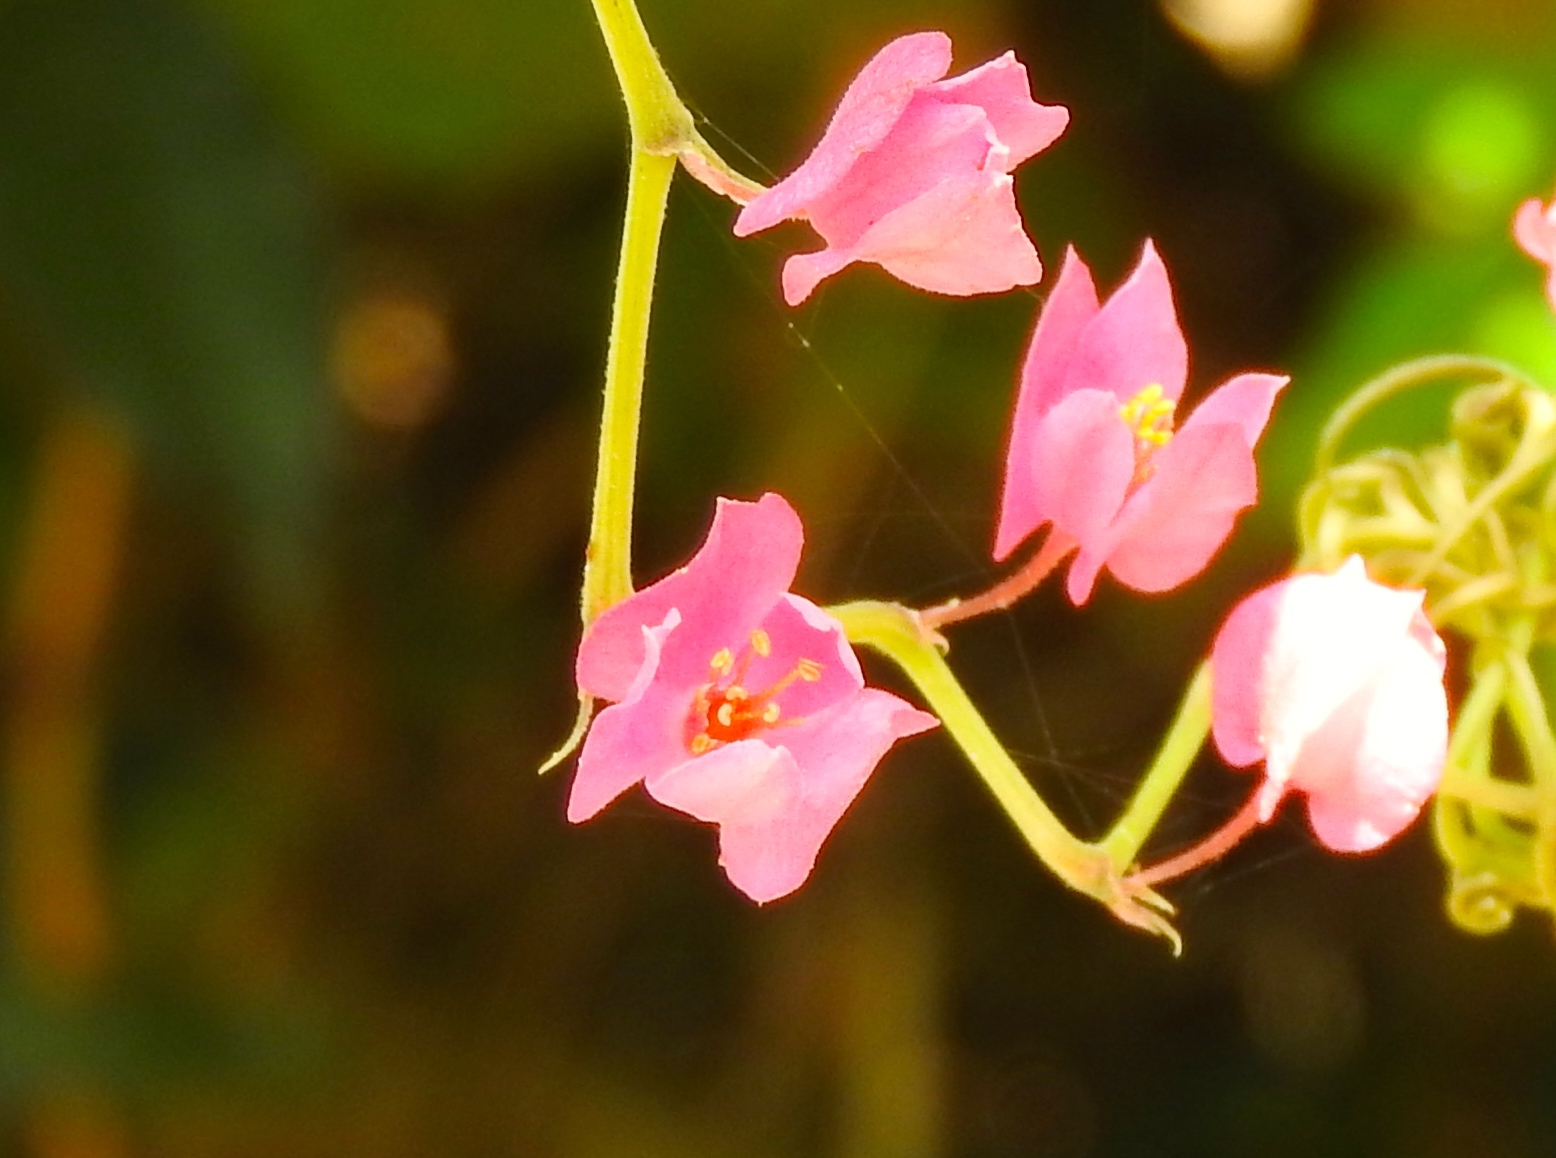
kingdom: Plantae
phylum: Tracheophyta
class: Magnoliopsida
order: Caryophyllales
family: Polygonaceae
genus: Antigonon
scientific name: Antigonon leptopus
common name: Coral vine
